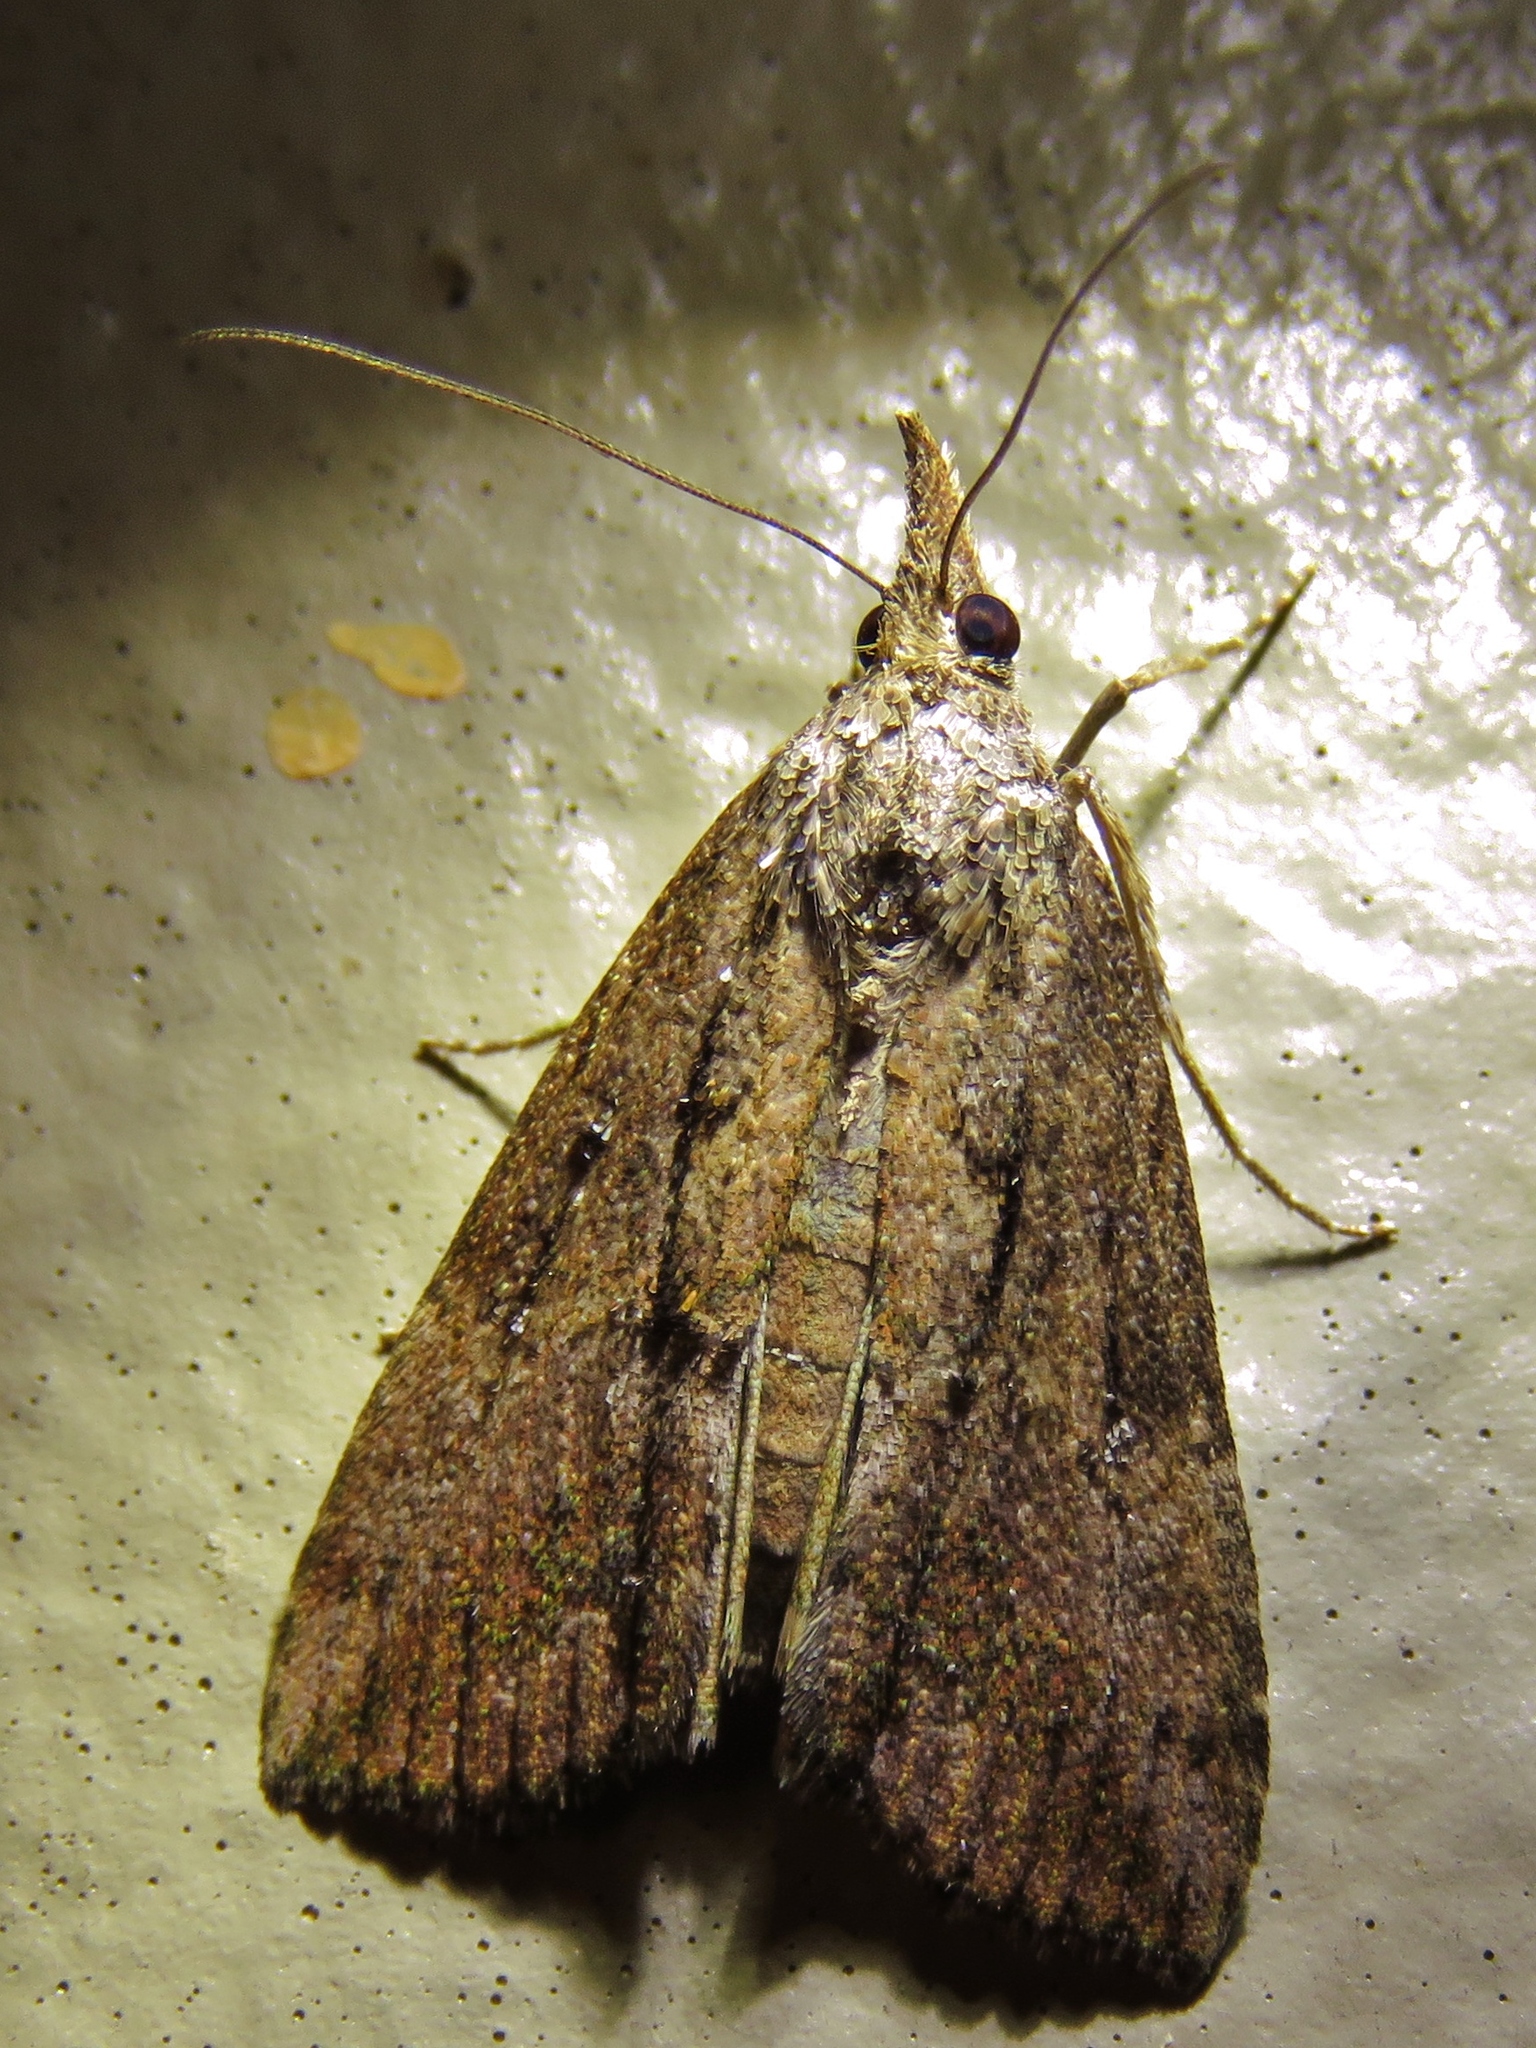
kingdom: Animalia
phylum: Arthropoda
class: Insecta
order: Lepidoptera
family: Erebidae
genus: Hypena
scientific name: Hypena scabra
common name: Green cloverworm
